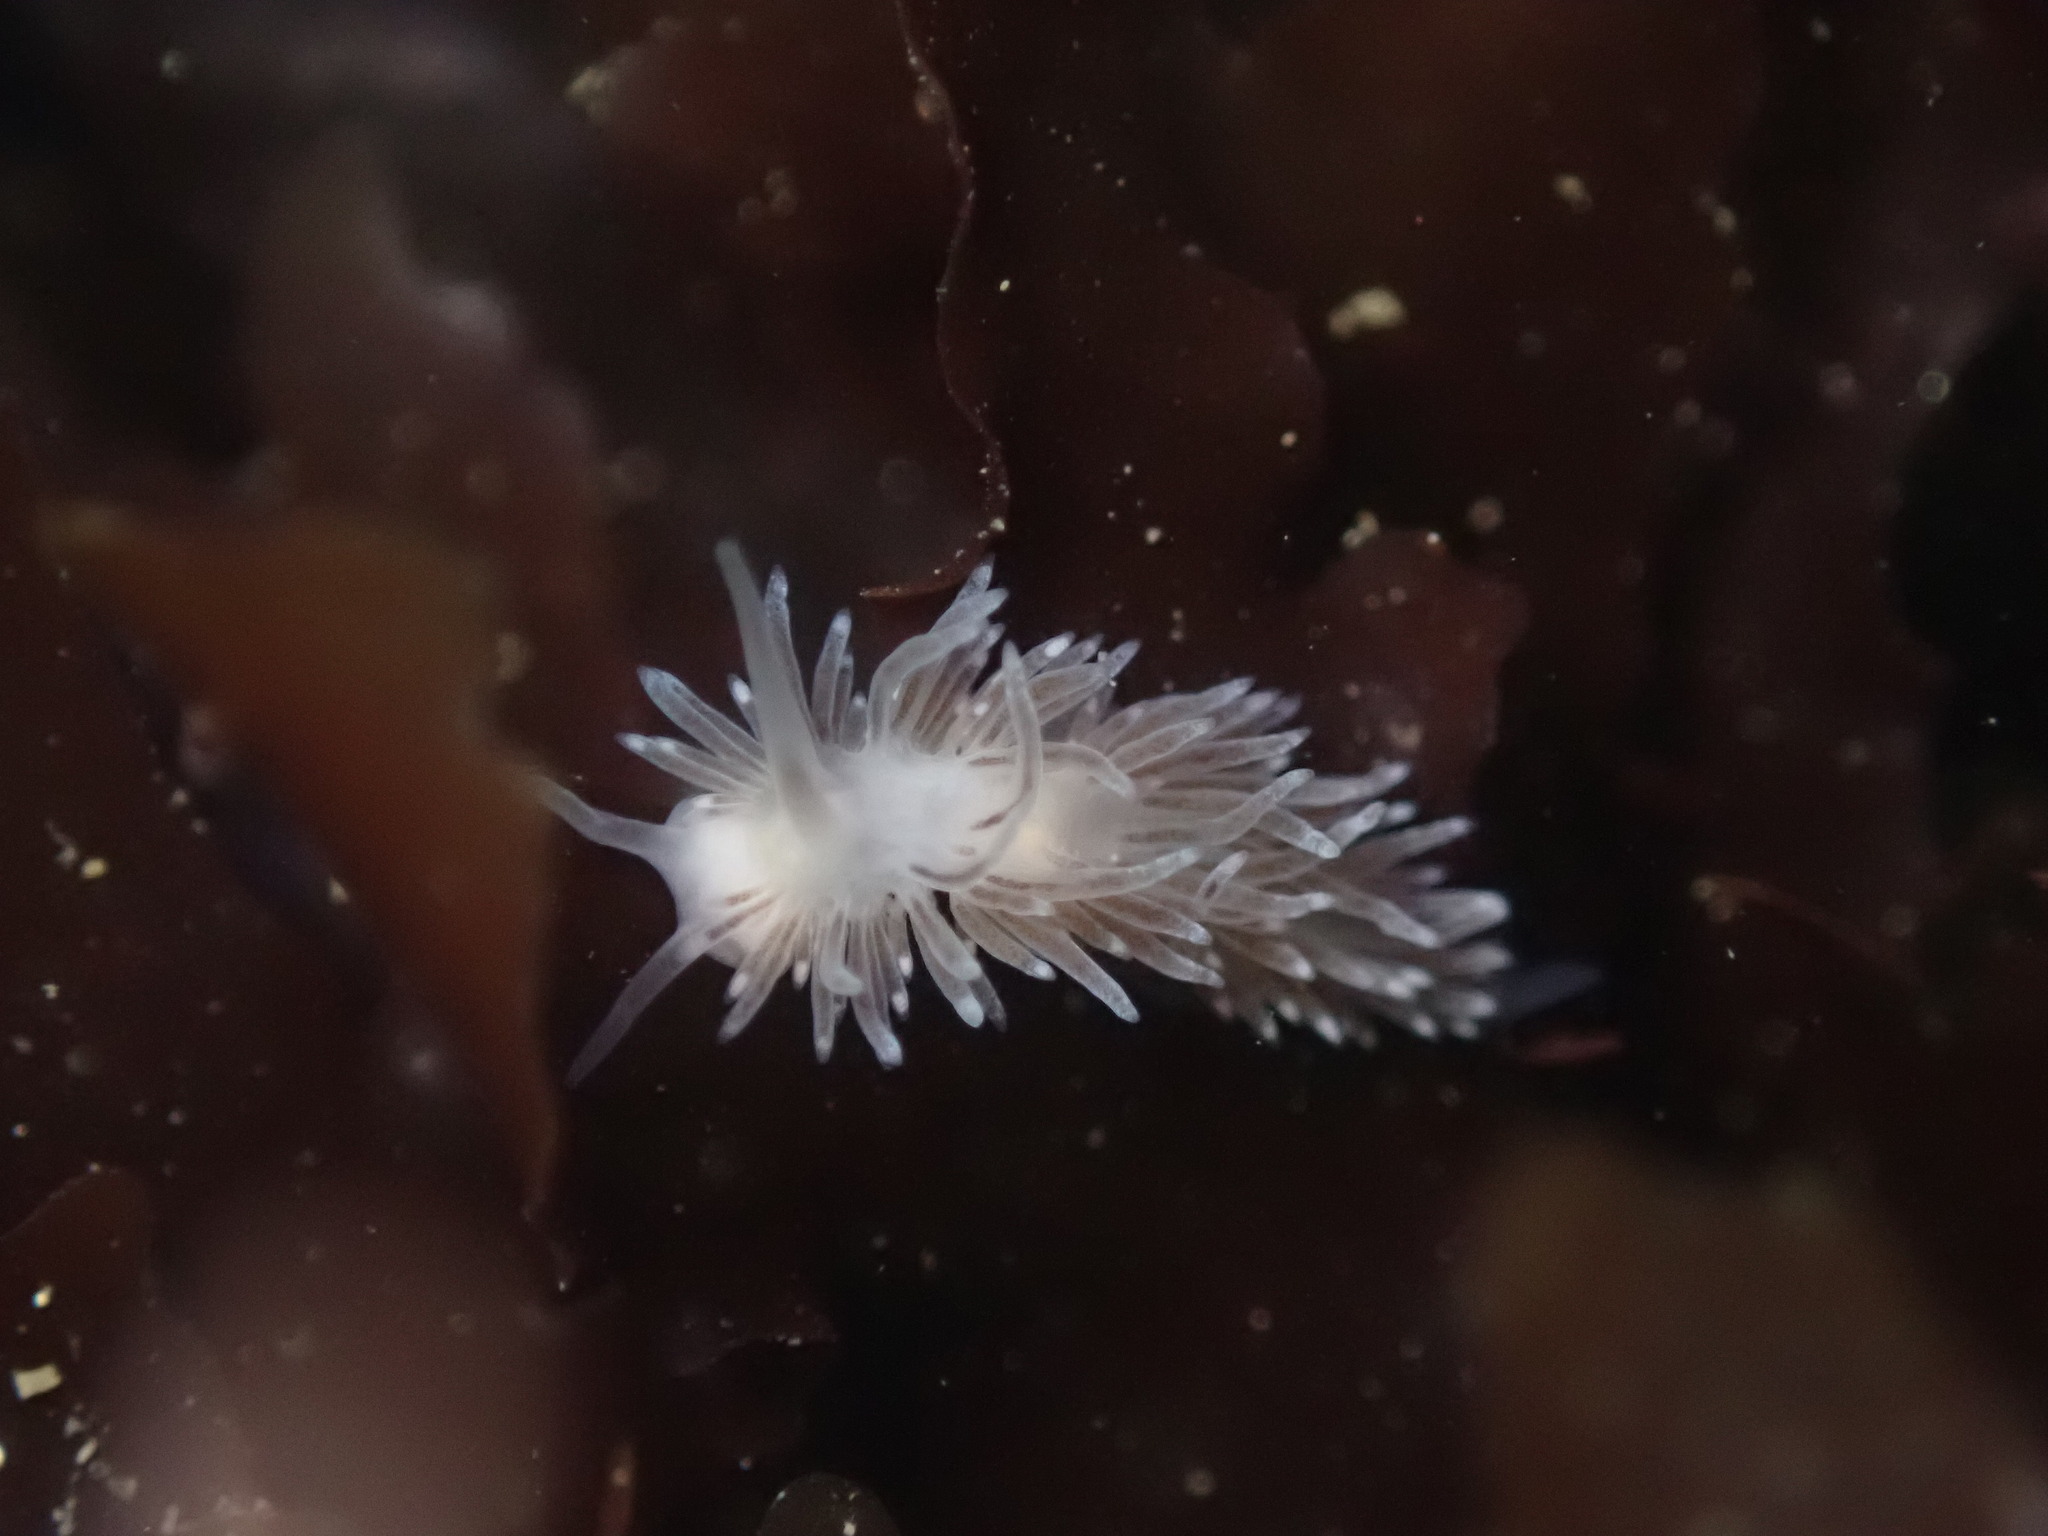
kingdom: Animalia
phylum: Mollusca
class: Gastropoda
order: Nudibranchia
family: Cuthonidae
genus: Cuthona
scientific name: Cuthona divae
